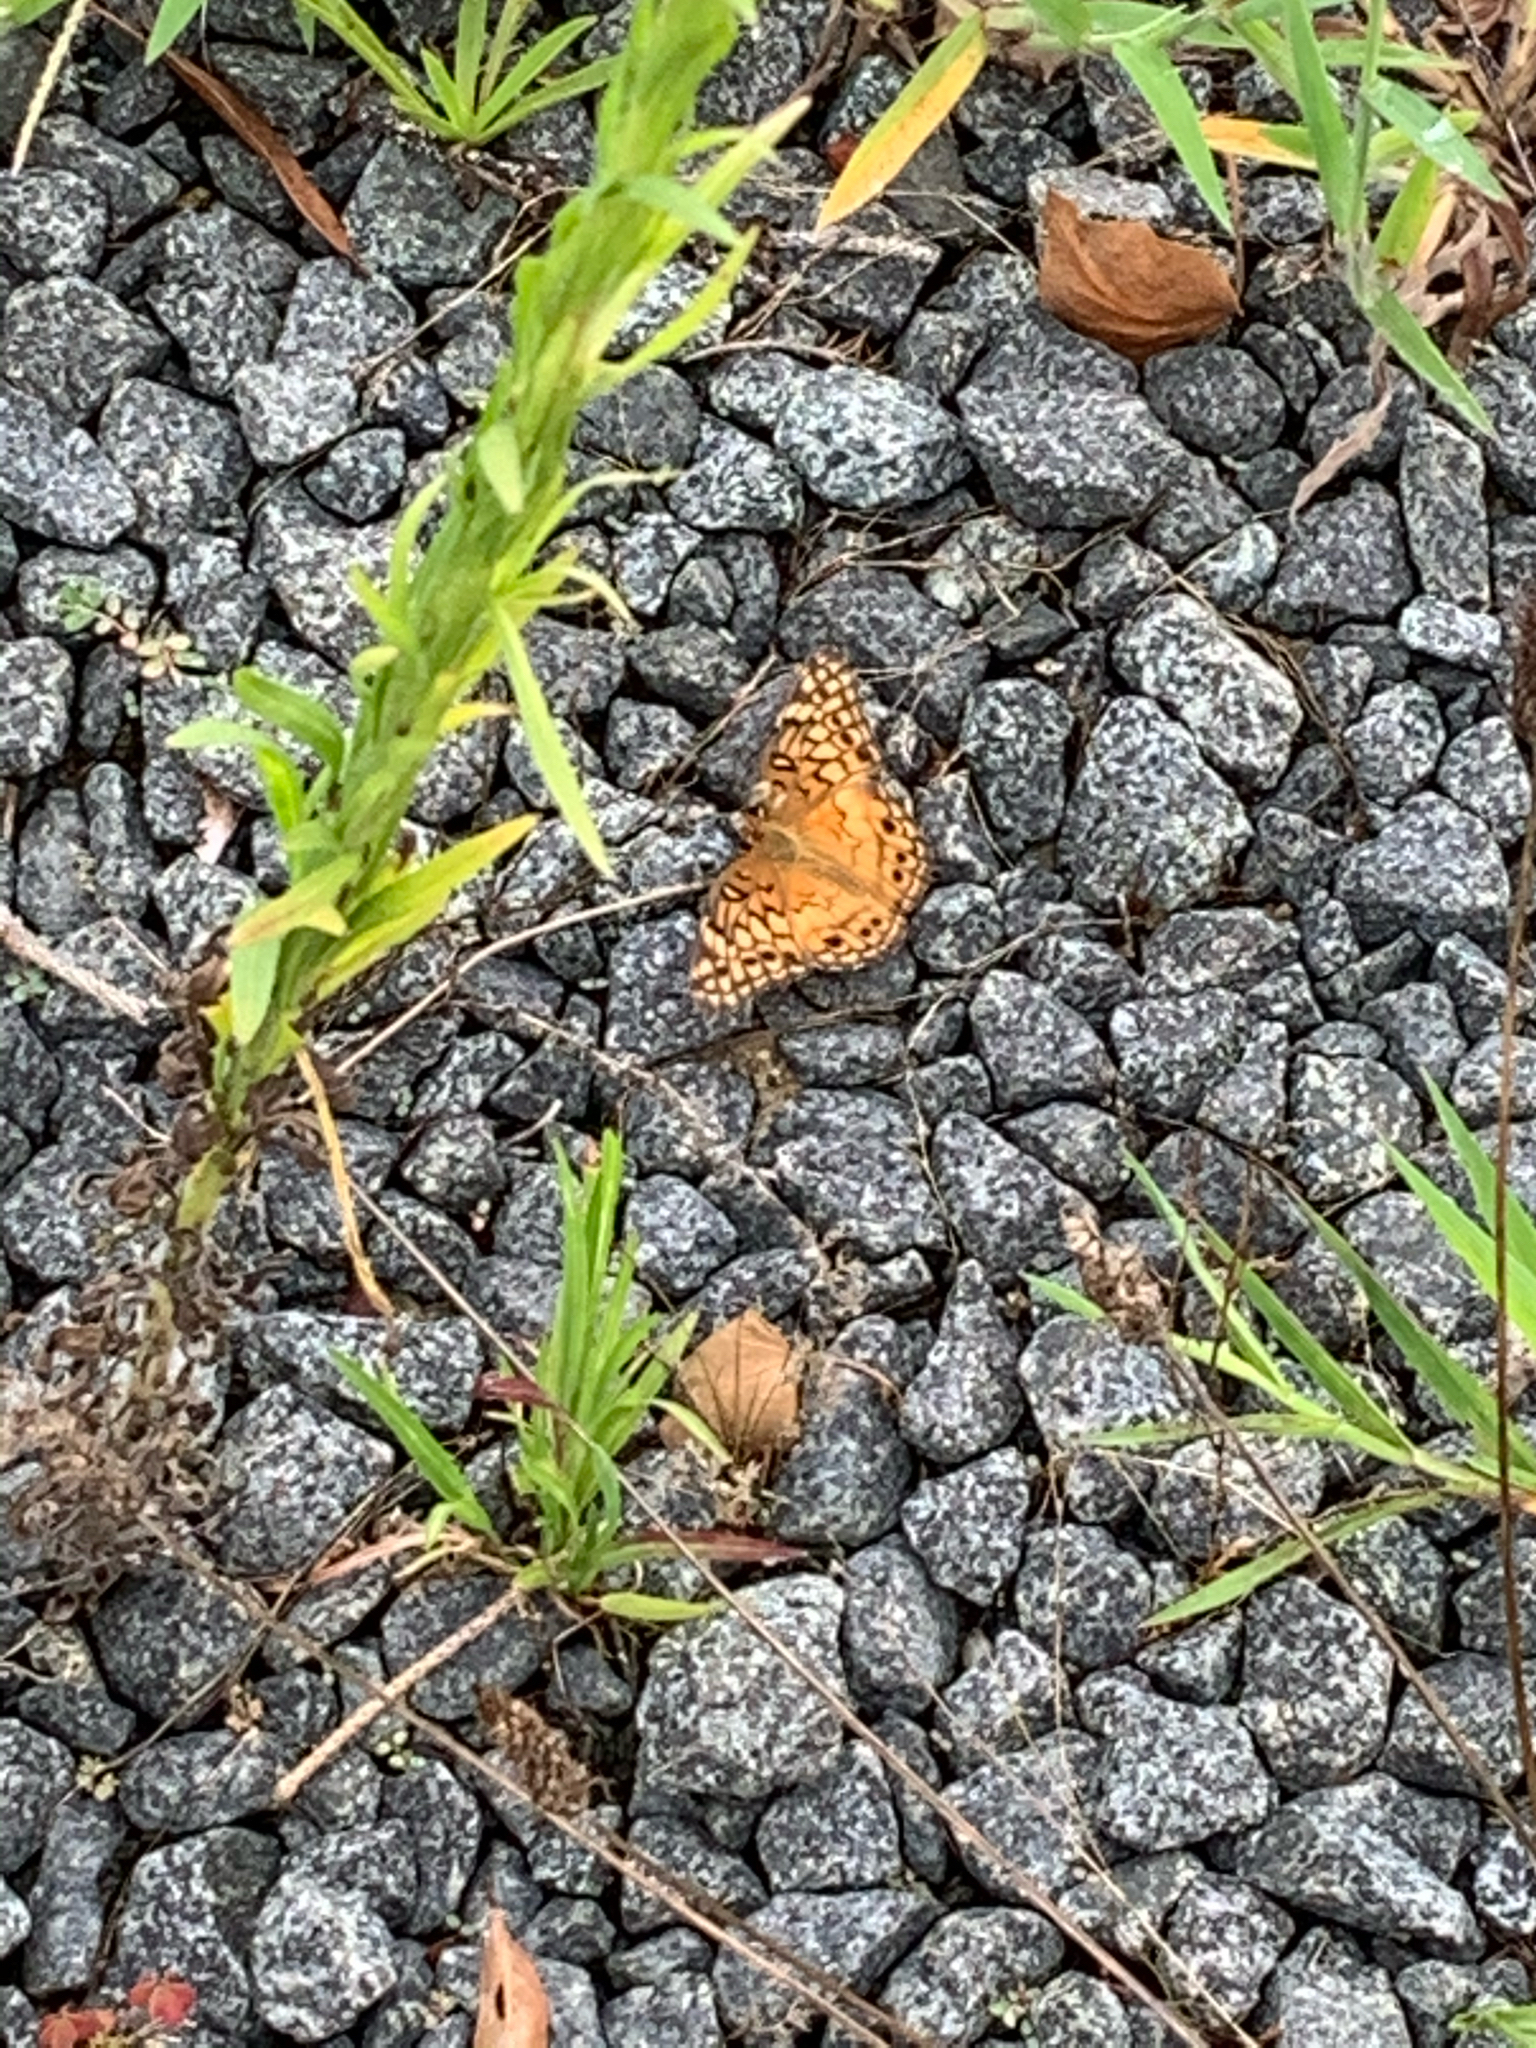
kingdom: Animalia
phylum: Arthropoda
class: Insecta
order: Lepidoptera
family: Nymphalidae
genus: Euptoieta
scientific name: Euptoieta claudia
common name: Variegated fritillary
